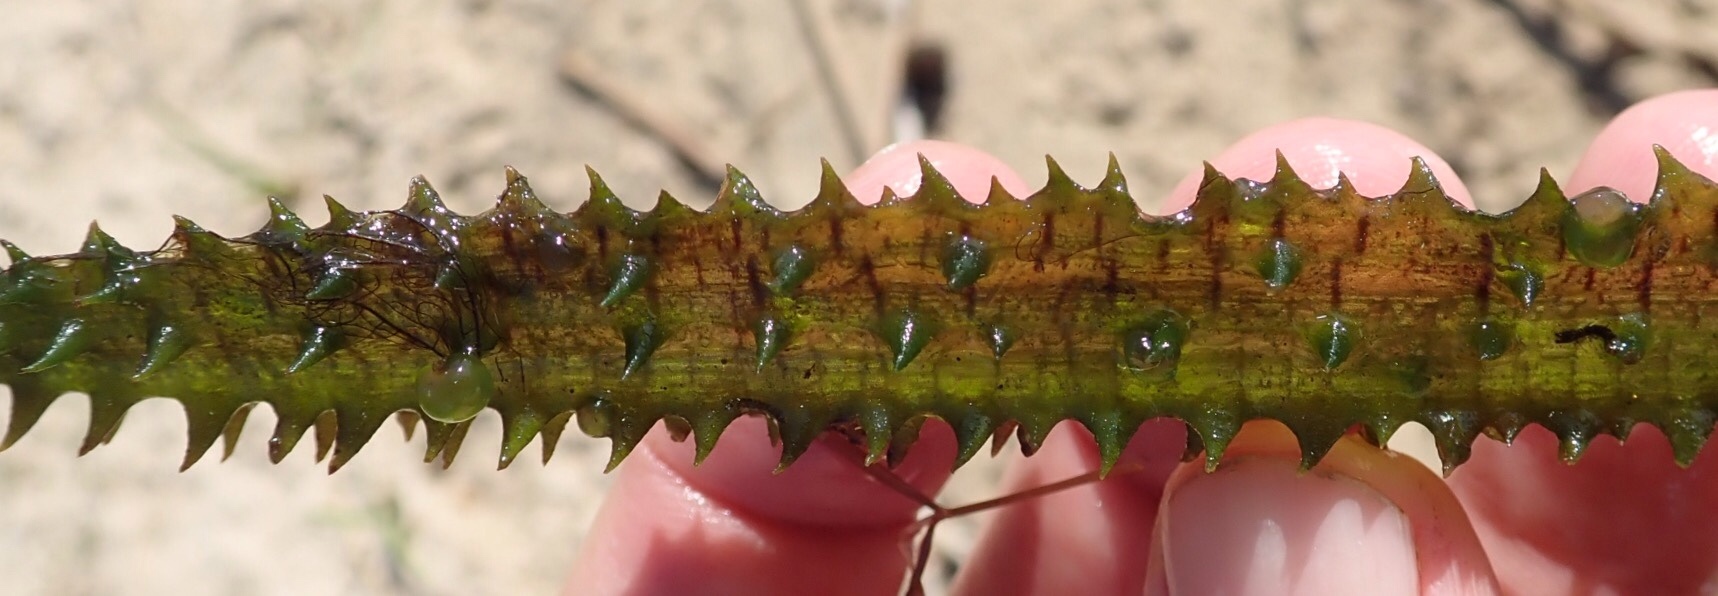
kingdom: Plantae
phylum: Tracheophyta
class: Liliopsida
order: Alismatales
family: Hydrocharitaceae
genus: Ottelia
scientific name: Ottelia muricata
